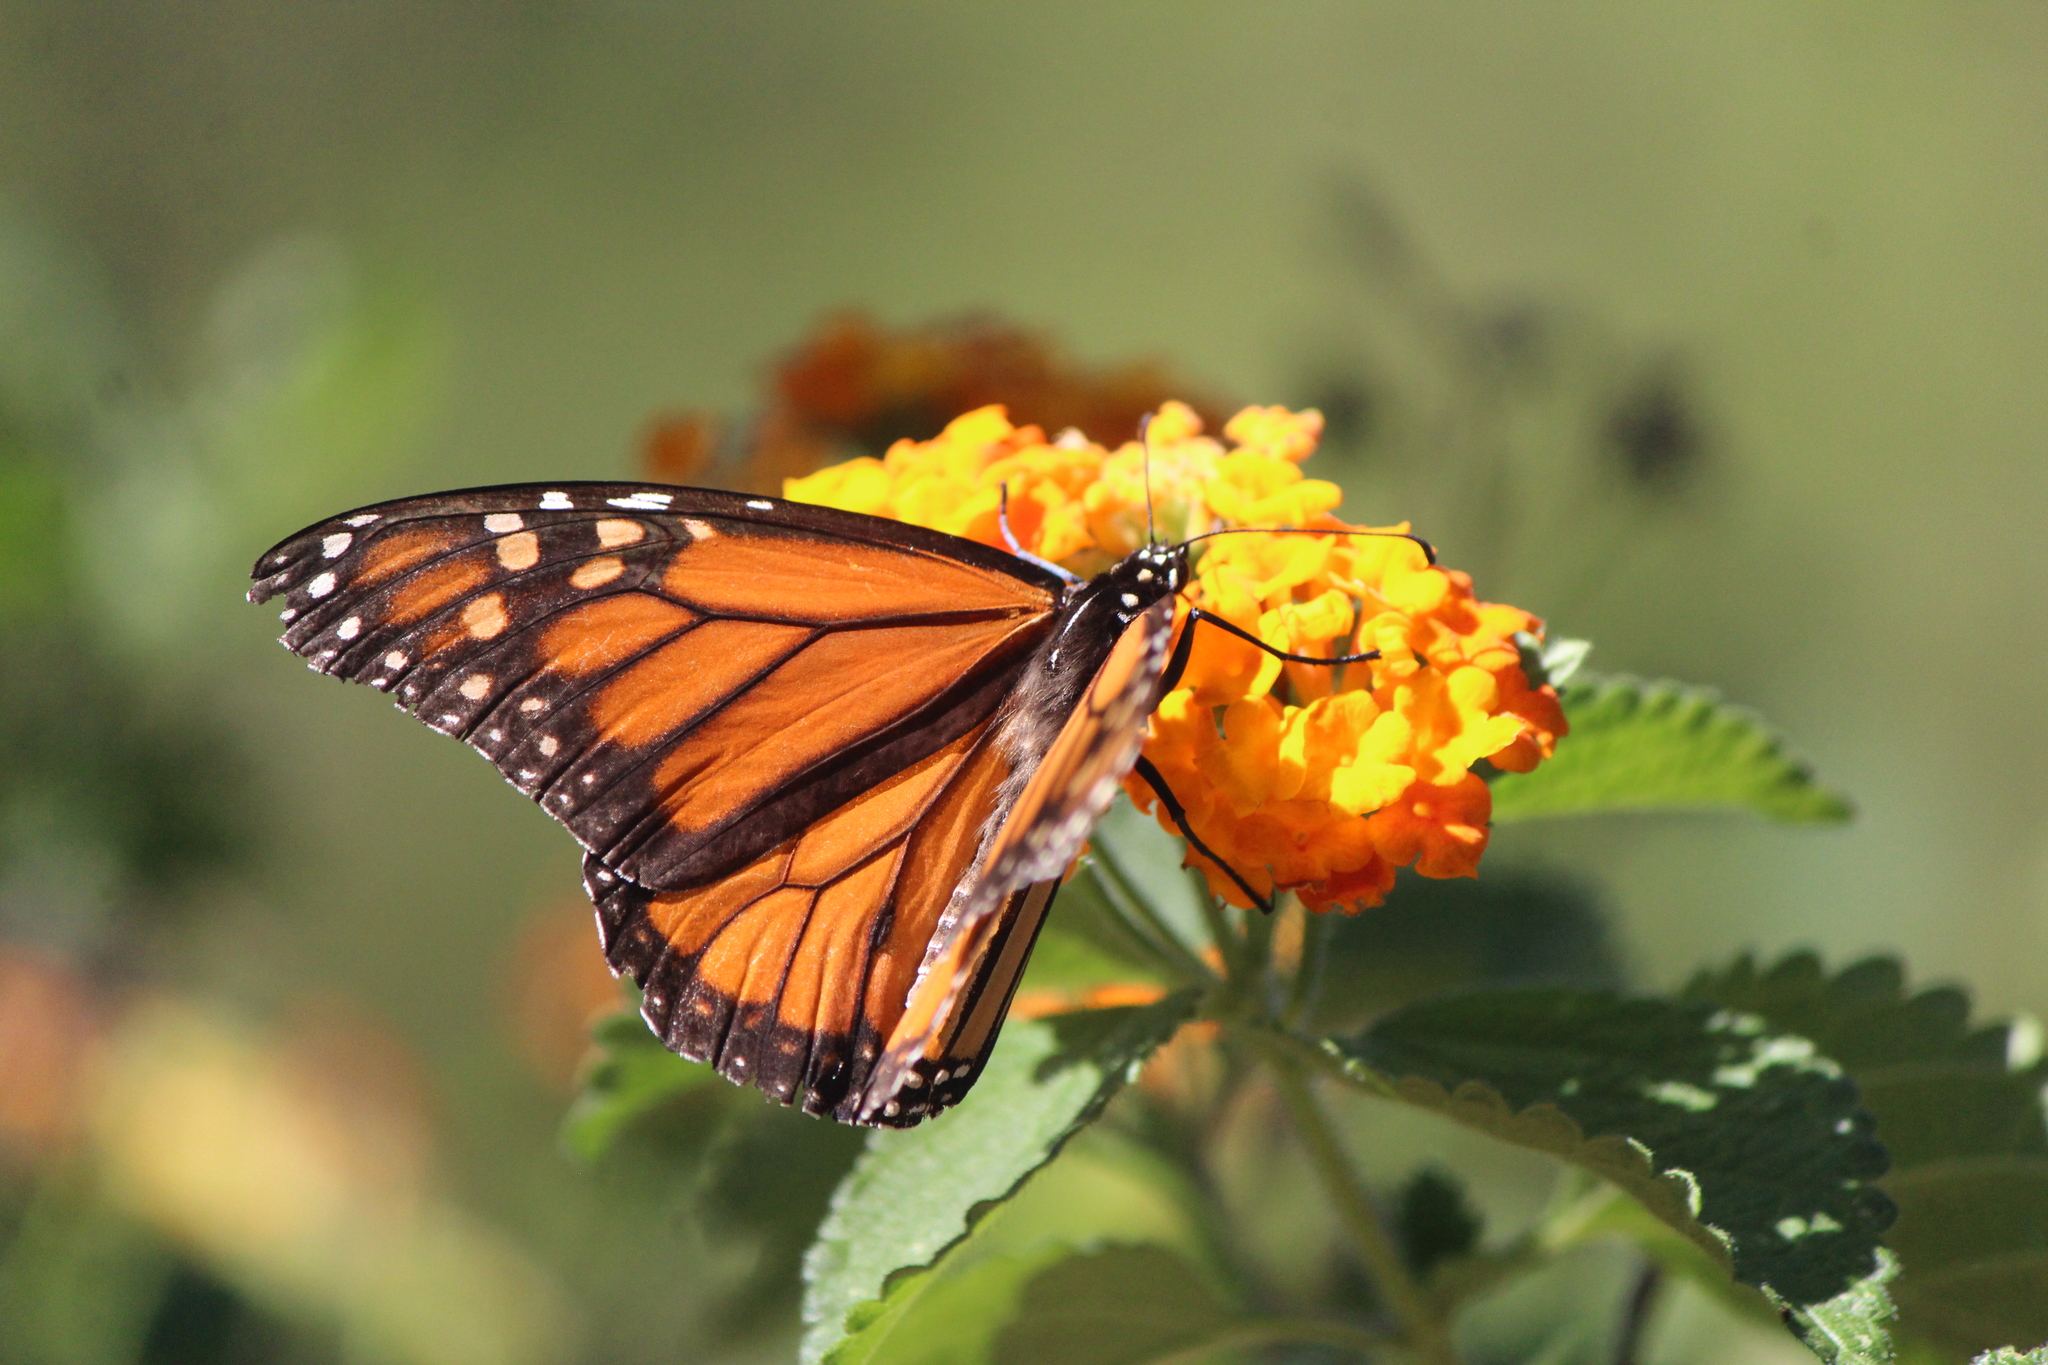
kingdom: Animalia
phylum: Arthropoda
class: Insecta
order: Lepidoptera
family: Nymphalidae
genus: Danaus
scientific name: Danaus plexippus
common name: Monarch
